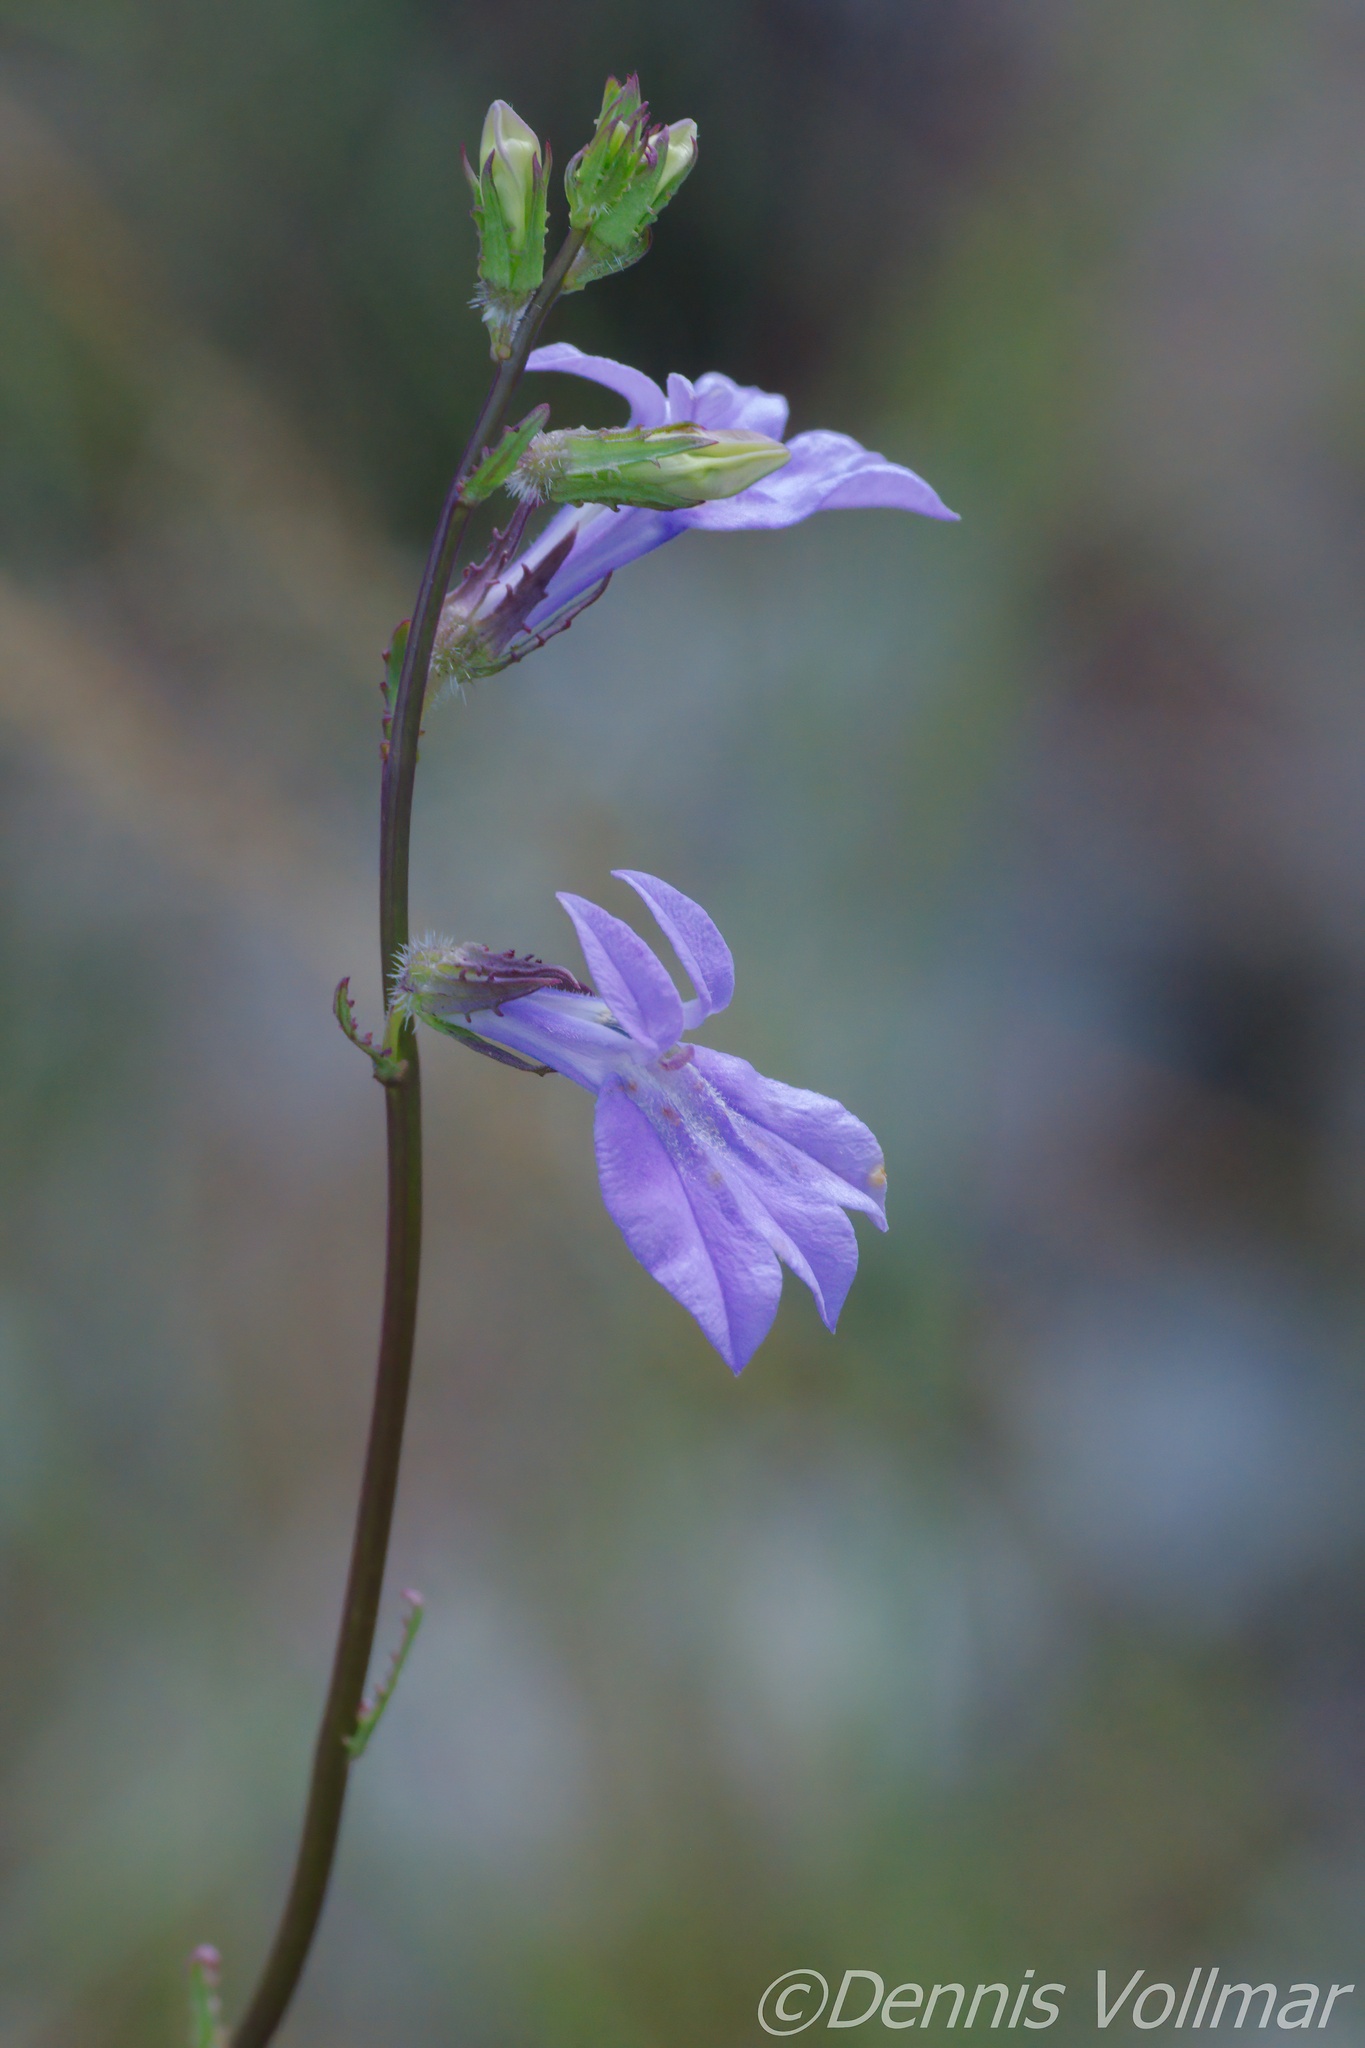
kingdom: Plantae
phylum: Tracheophyta
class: Magnoliopsida
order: Asterales
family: Campanulaceae
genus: Lobelia
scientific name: Lobelia glandulosa
